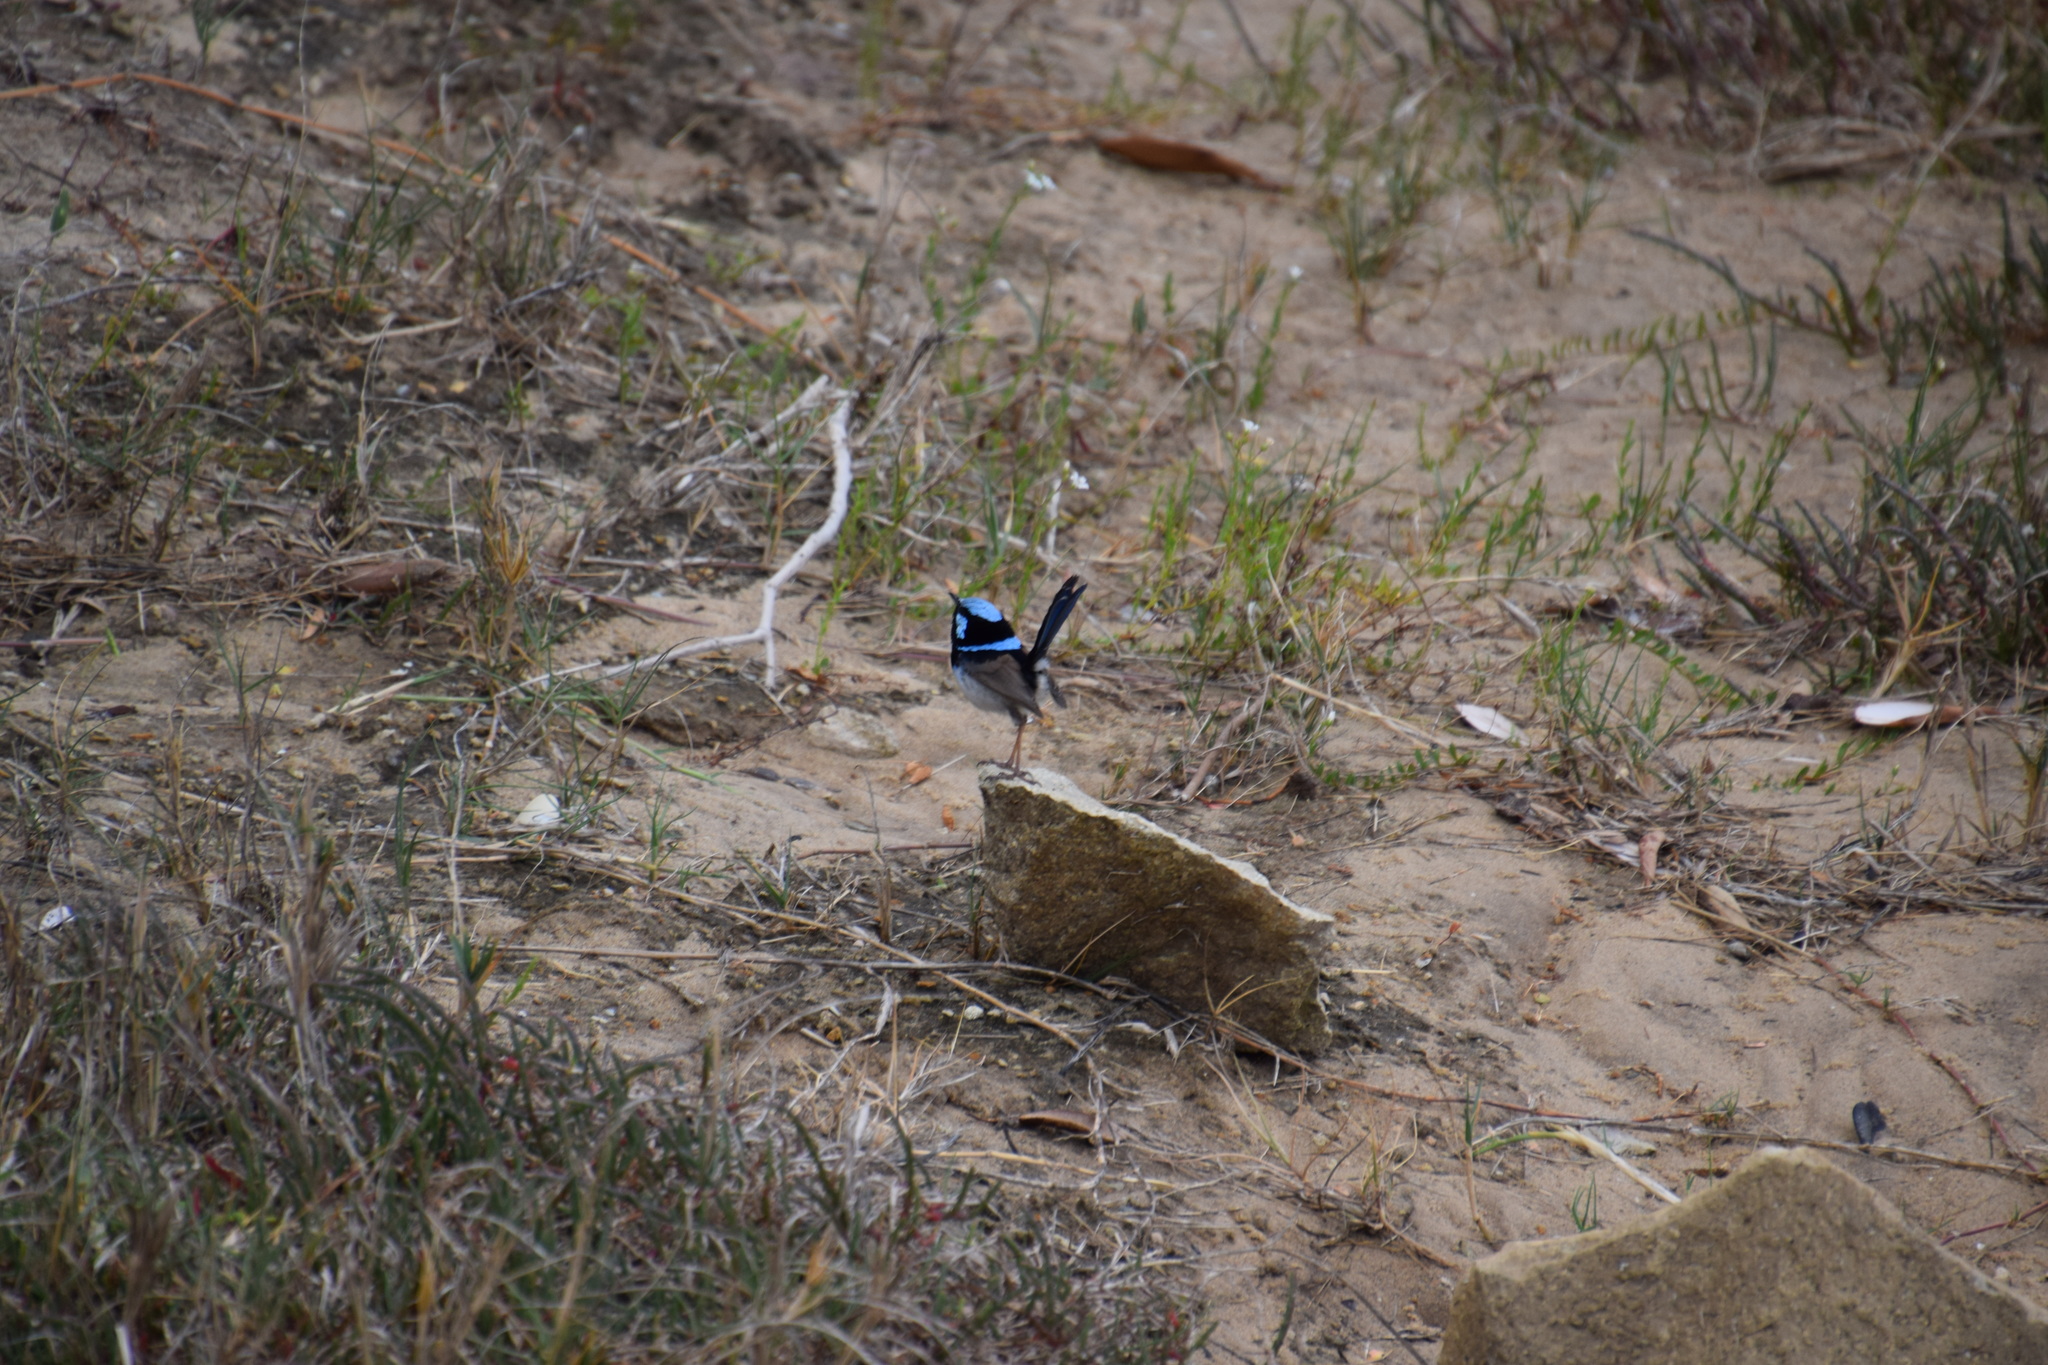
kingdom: Animalia
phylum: Chordata
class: Aves
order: Passeriformes
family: Maluridae
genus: Malurus
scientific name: Malurus cyaneus
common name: Superb fairywren
